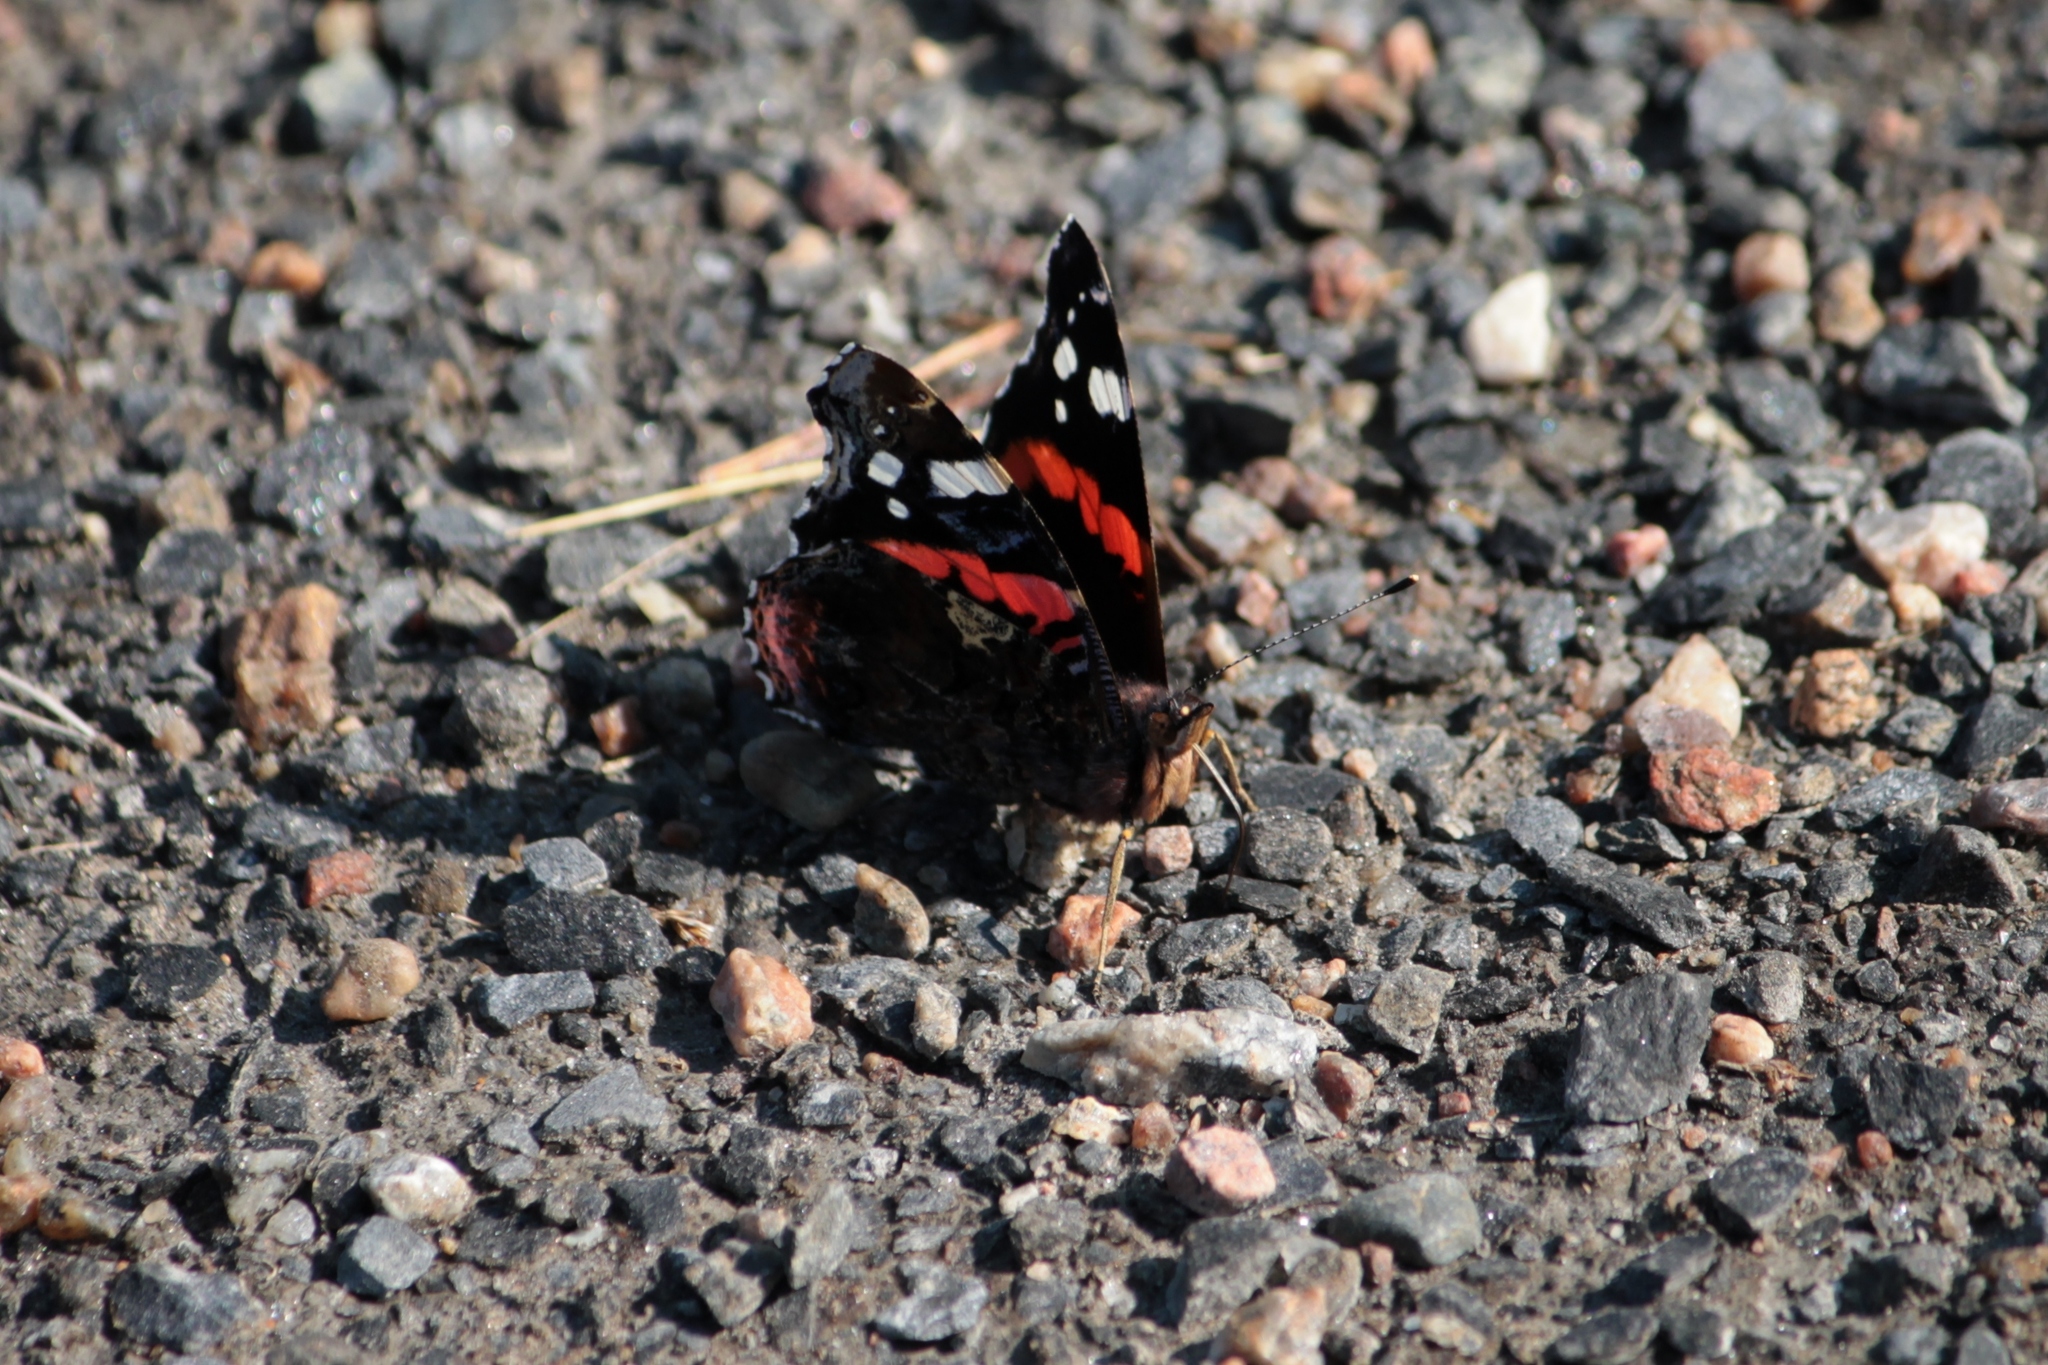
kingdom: Animalia
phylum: Arthropoda
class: Insecta
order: Lepidoptera
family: Nymphalidae
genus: Vanessa
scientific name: Vanessa atalanta
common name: Red admiral
